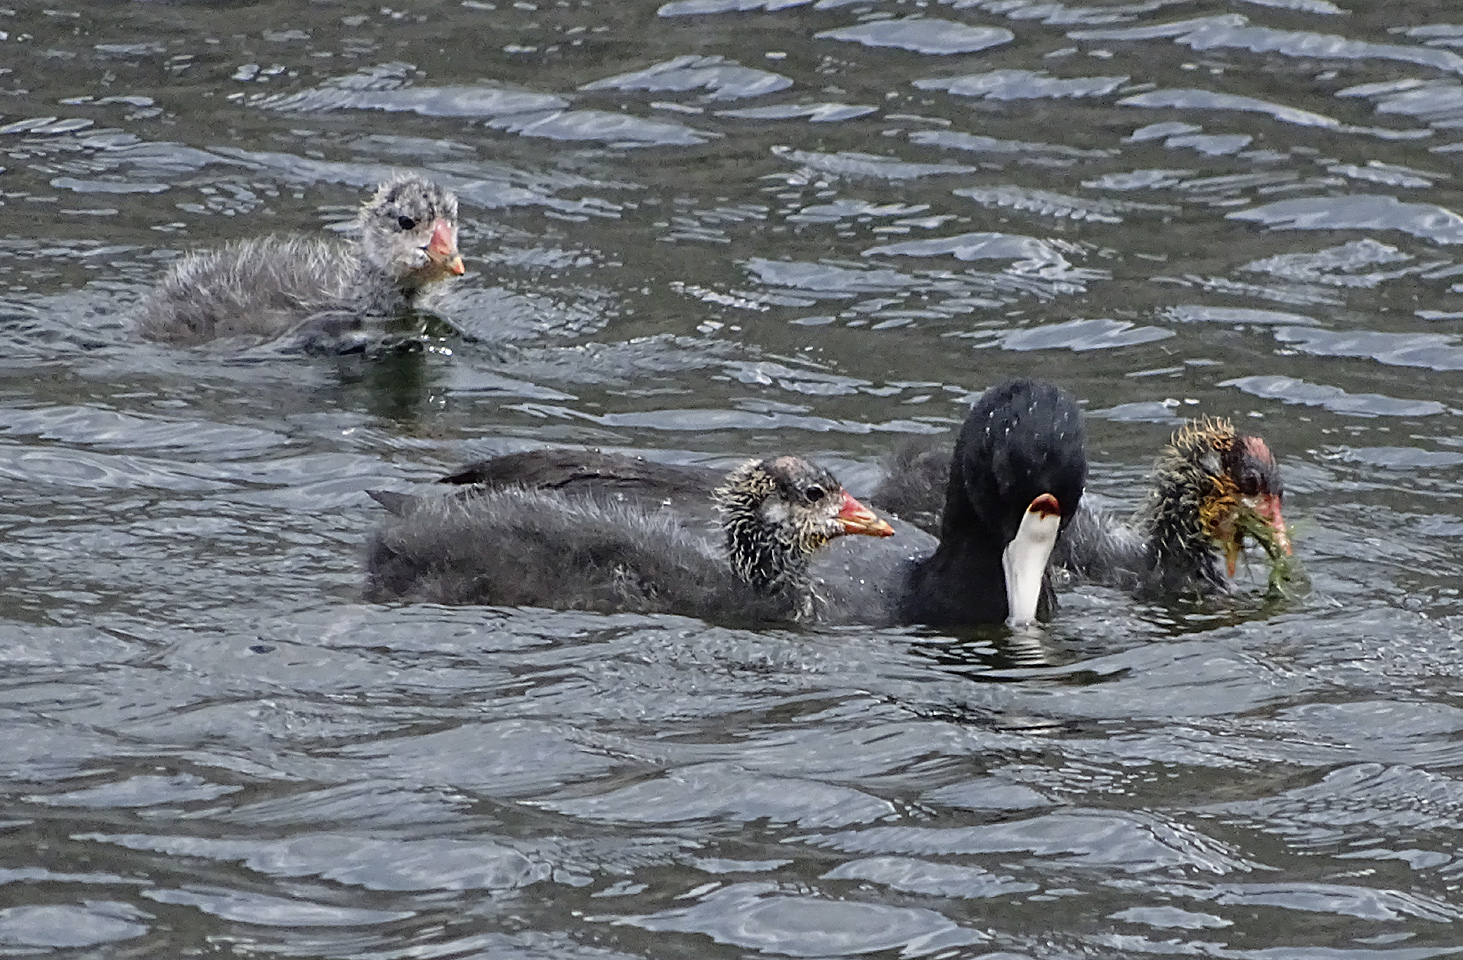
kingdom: Animalia
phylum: Chordata
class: Aves
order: Gruiformes
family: Rallidae
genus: Fulica
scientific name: Fulica americana
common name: American coot
